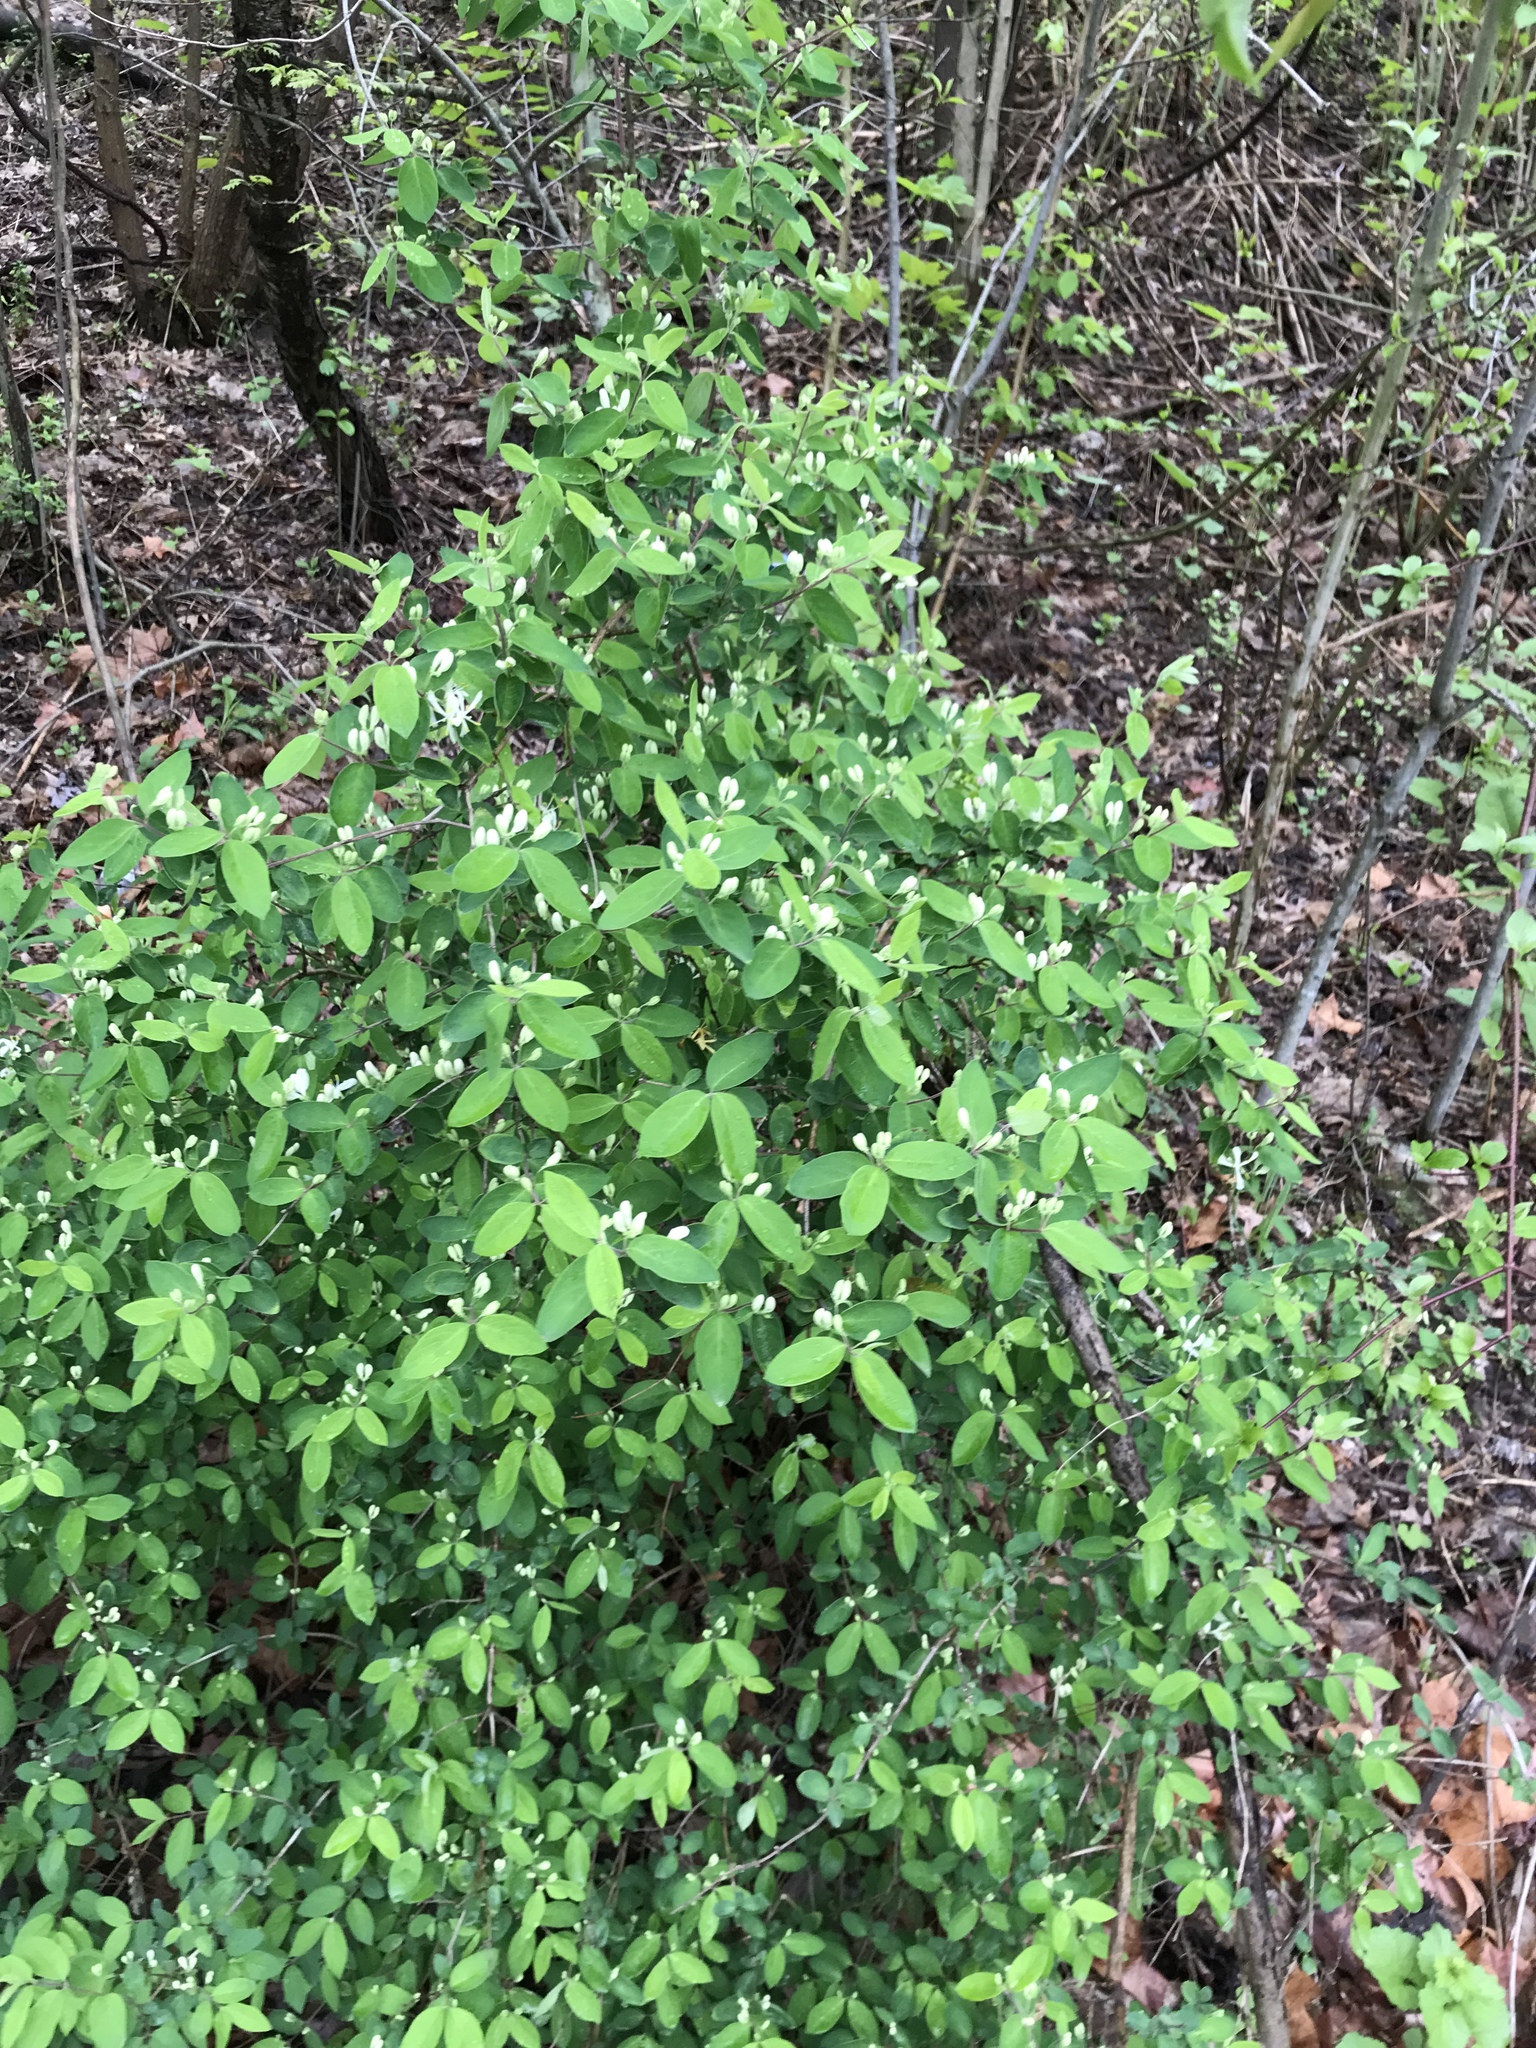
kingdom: Plantae
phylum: Tracheophyta
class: Magnoliopsida
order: Dipsacales
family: Caprifoliaceae
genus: Lonicera
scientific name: Lonicera morrowii
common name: Morrow's honeysuckle
